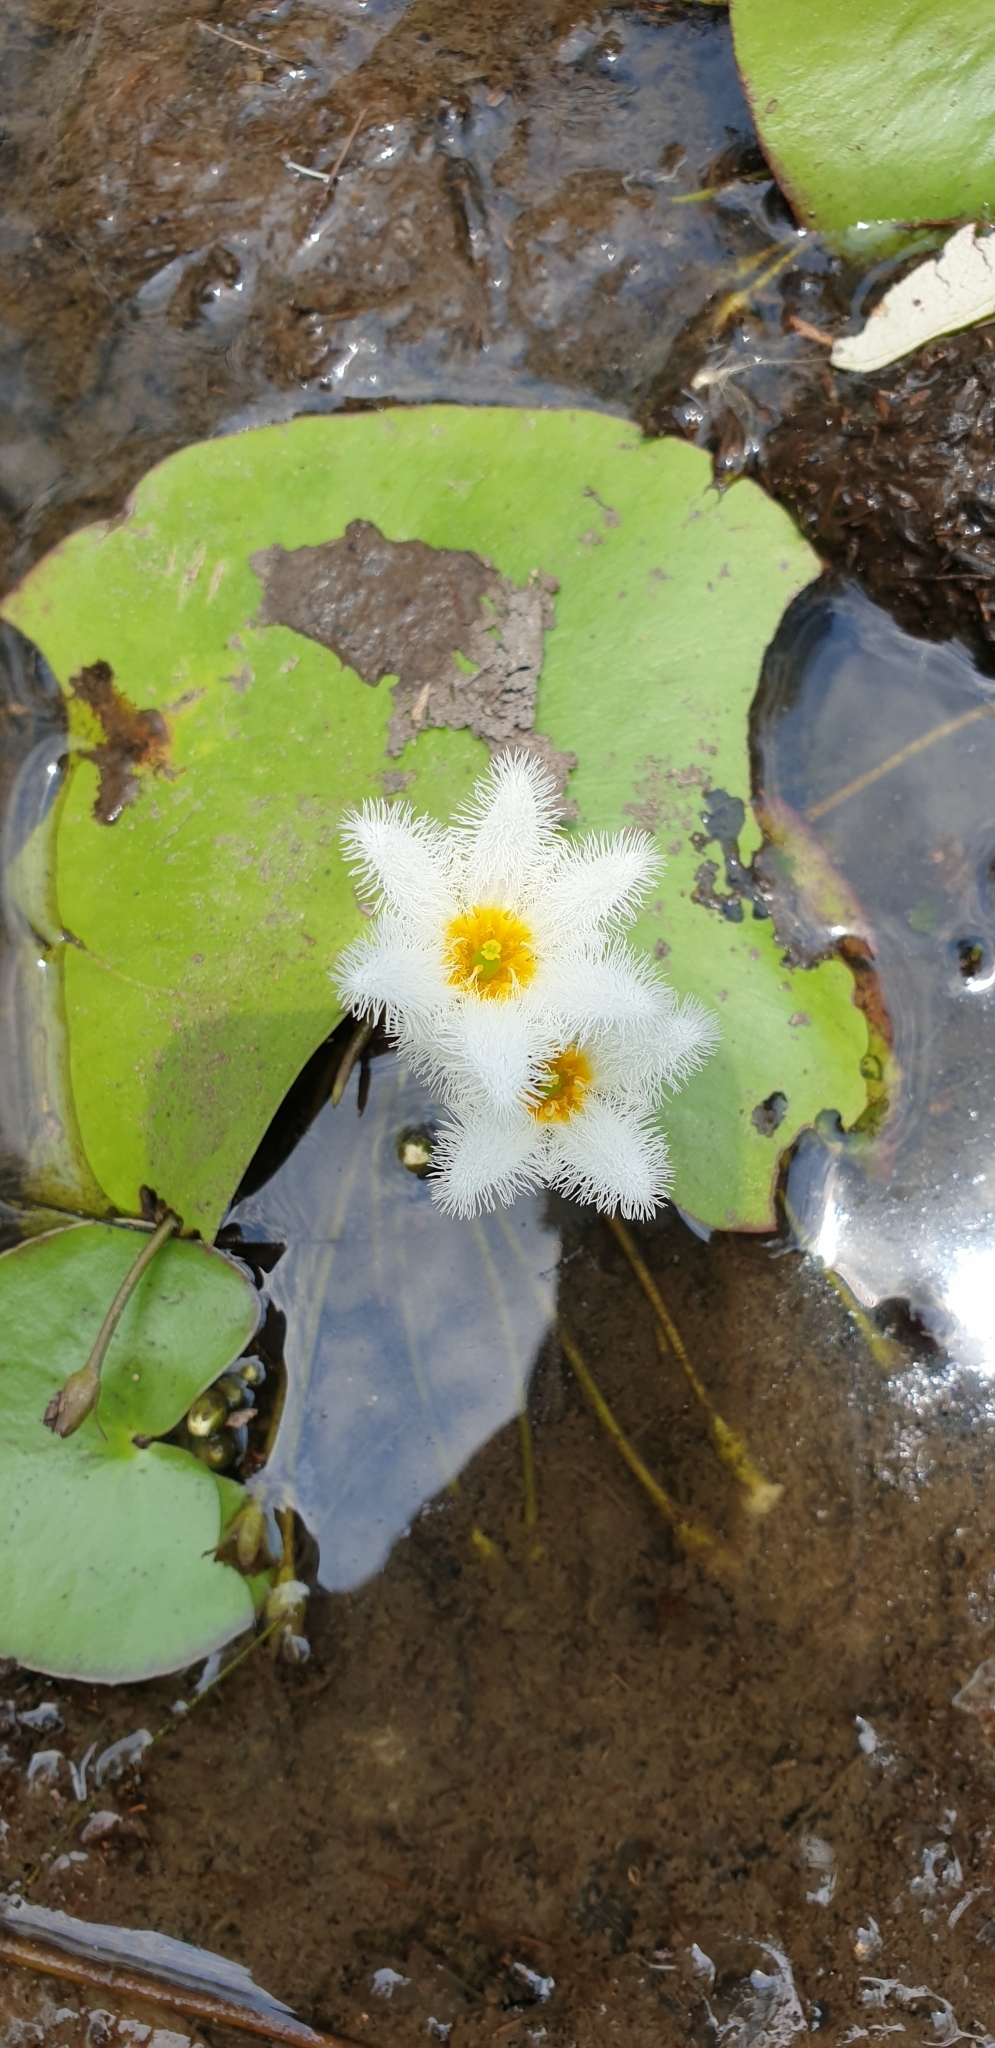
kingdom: Plantae
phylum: Tracheophyta
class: Magnoliopsida
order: Asterales
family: Menyanthaceae
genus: Nymphoides
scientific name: Nymphoides indica
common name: Water-snowflake
